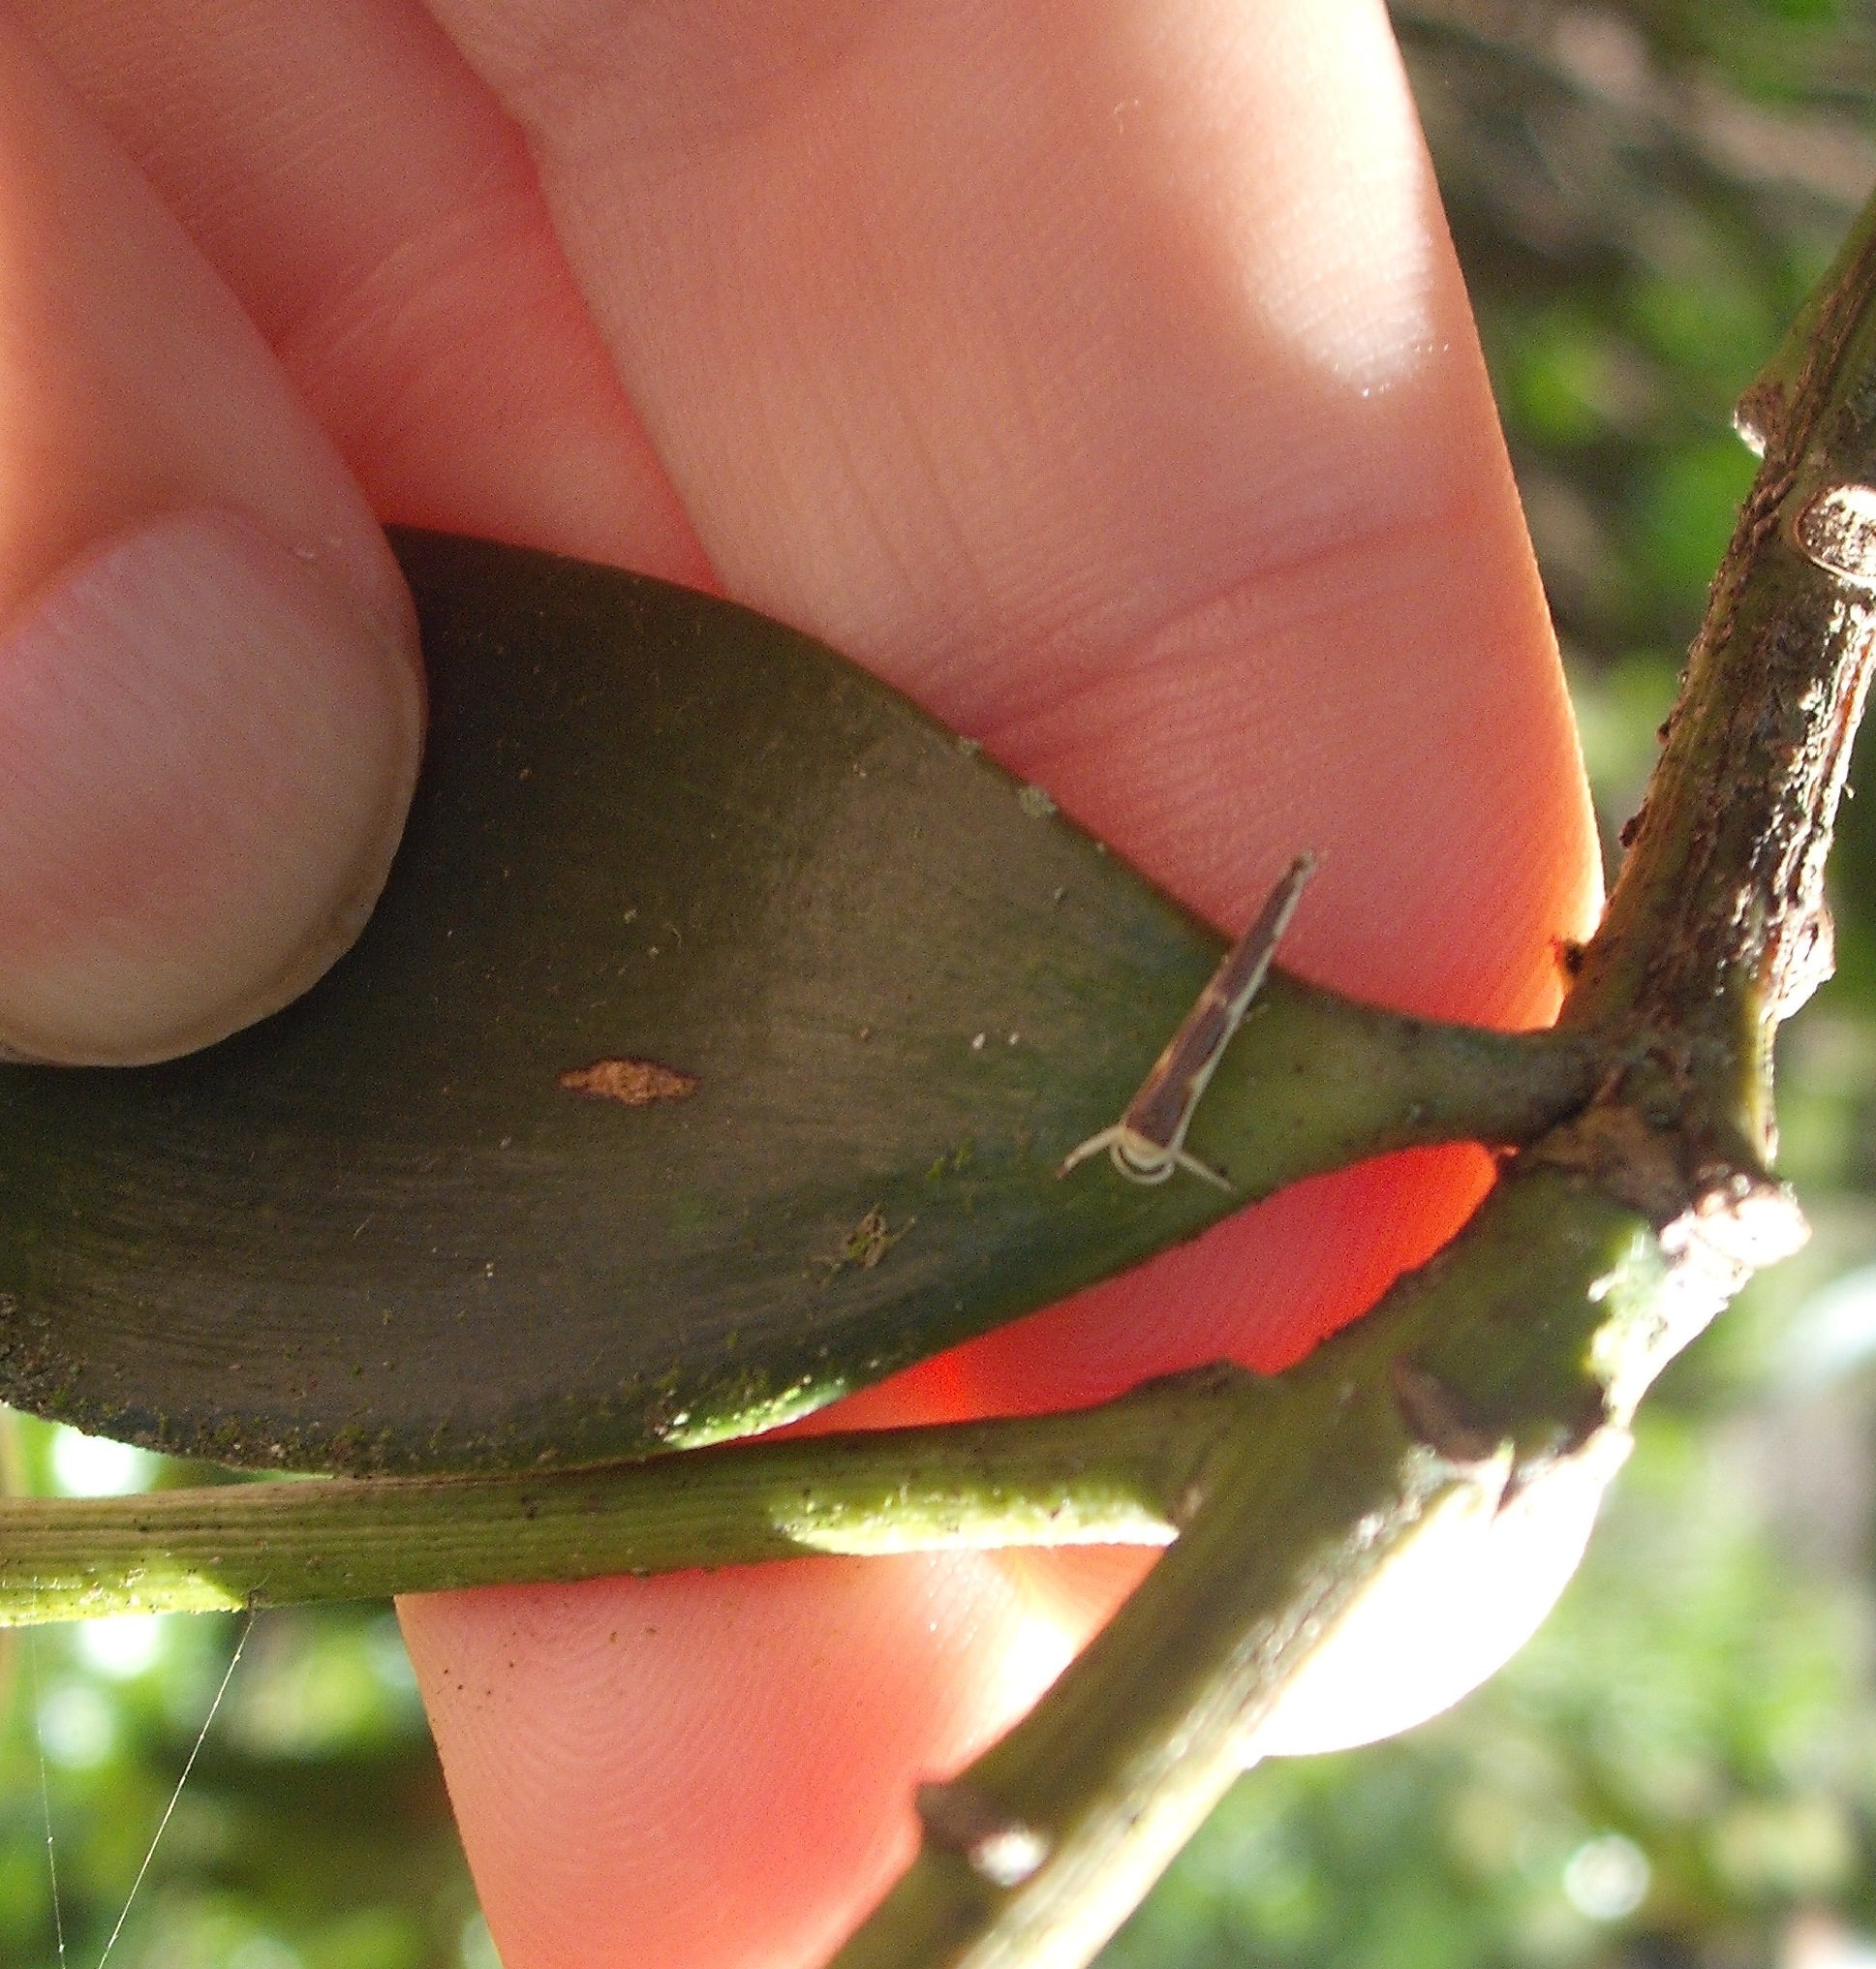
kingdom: Animalia
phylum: Arthropoda
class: Insecta
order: Lepidoptera
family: Roeslerstammiidae
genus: Vanicela
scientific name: Vanicela disjunctella
